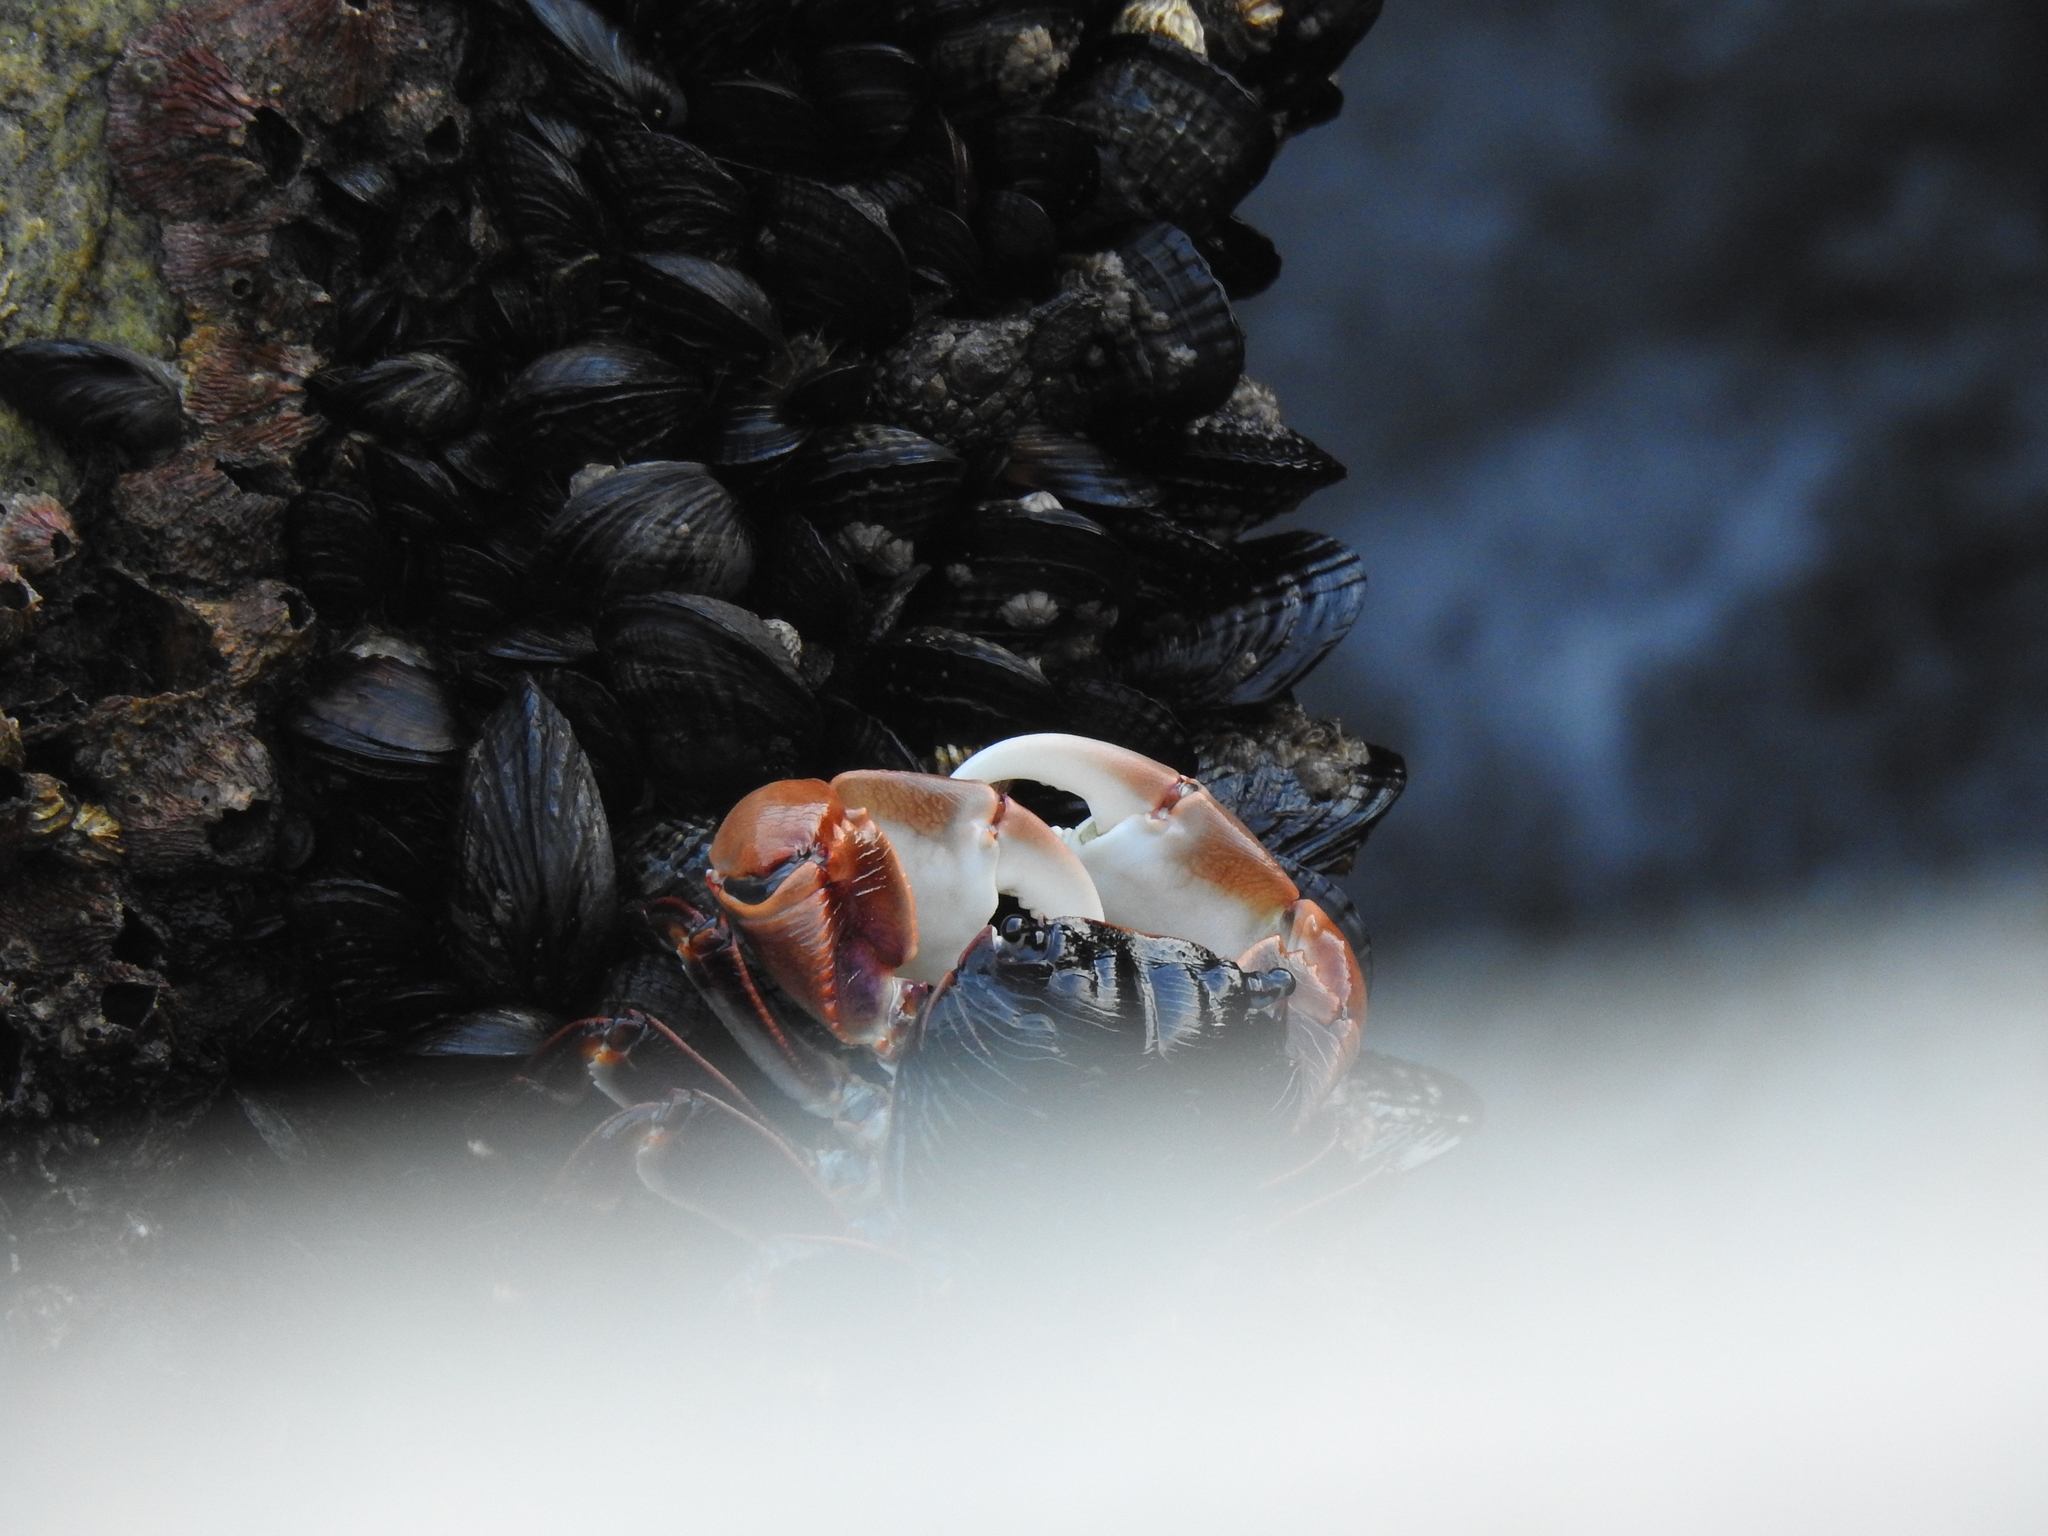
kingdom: Animalia
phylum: Arthropoda
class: Malacostraca
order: Decapoda
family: Grapsidae
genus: Pachygrapsus
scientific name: Pachygrapsus crassipes
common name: Striped shore crab
